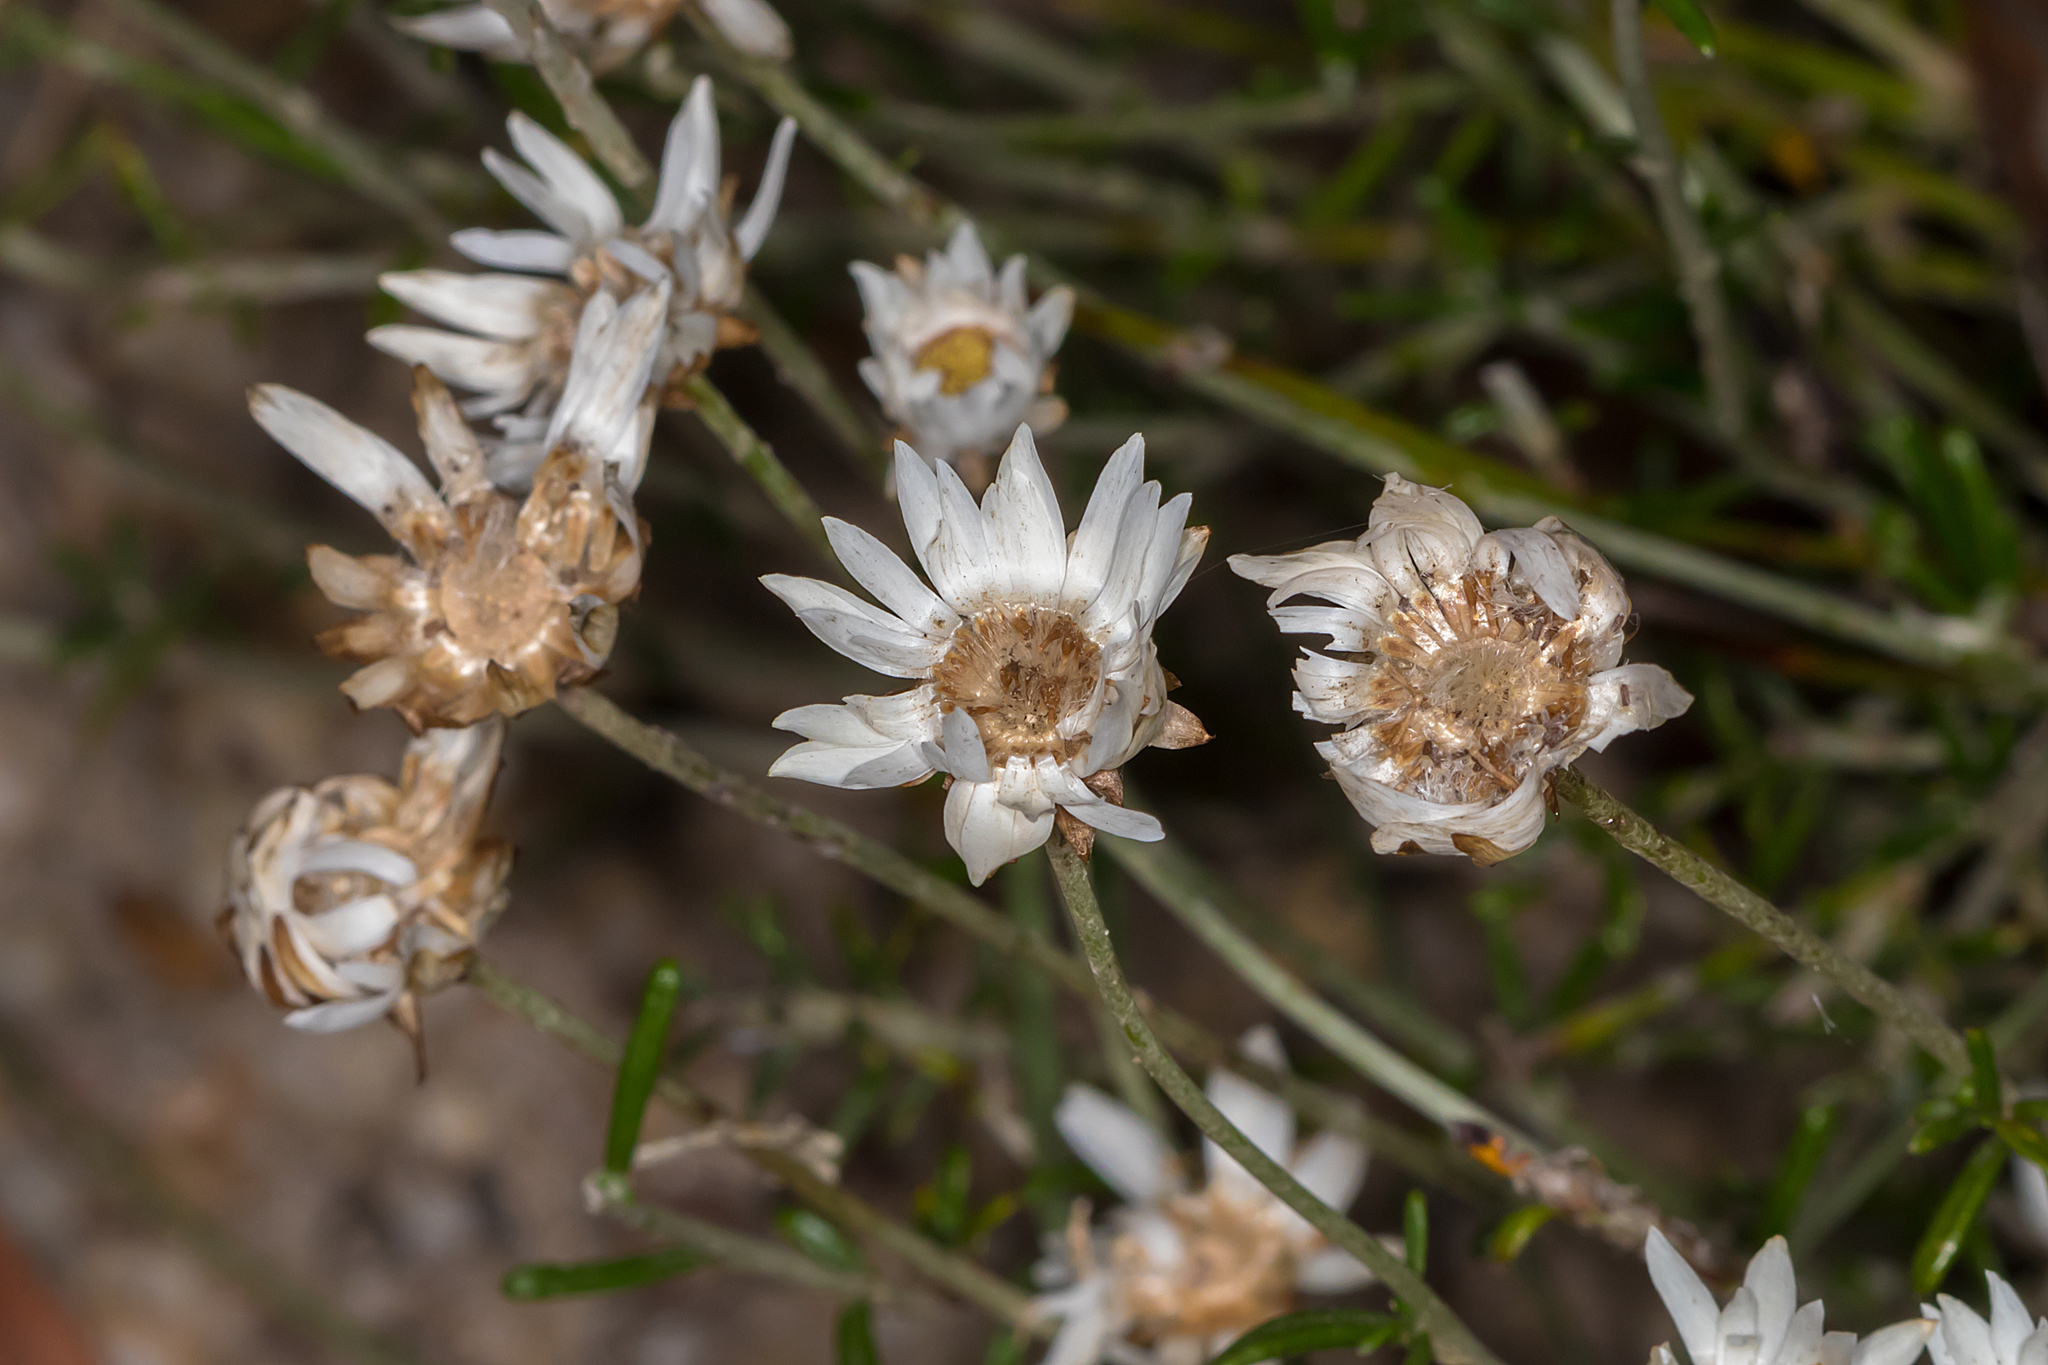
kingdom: Plantae
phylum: Tracheophyta
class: Magnoliopsida
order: Asterales
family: Asteraceae
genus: Argentipallium
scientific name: Argentipallium obtusifolium
